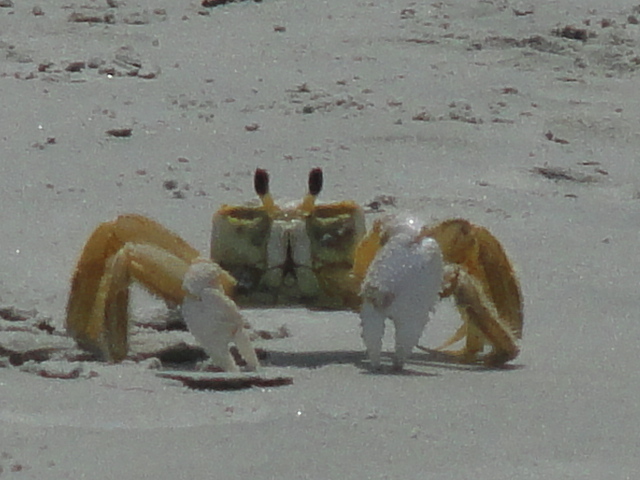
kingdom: Animalia
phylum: Arthropoda
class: Malacostraca
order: Decapoda
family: Ocypodidae
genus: Ocypode
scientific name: Ocypode quadrata
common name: Ghost crab
